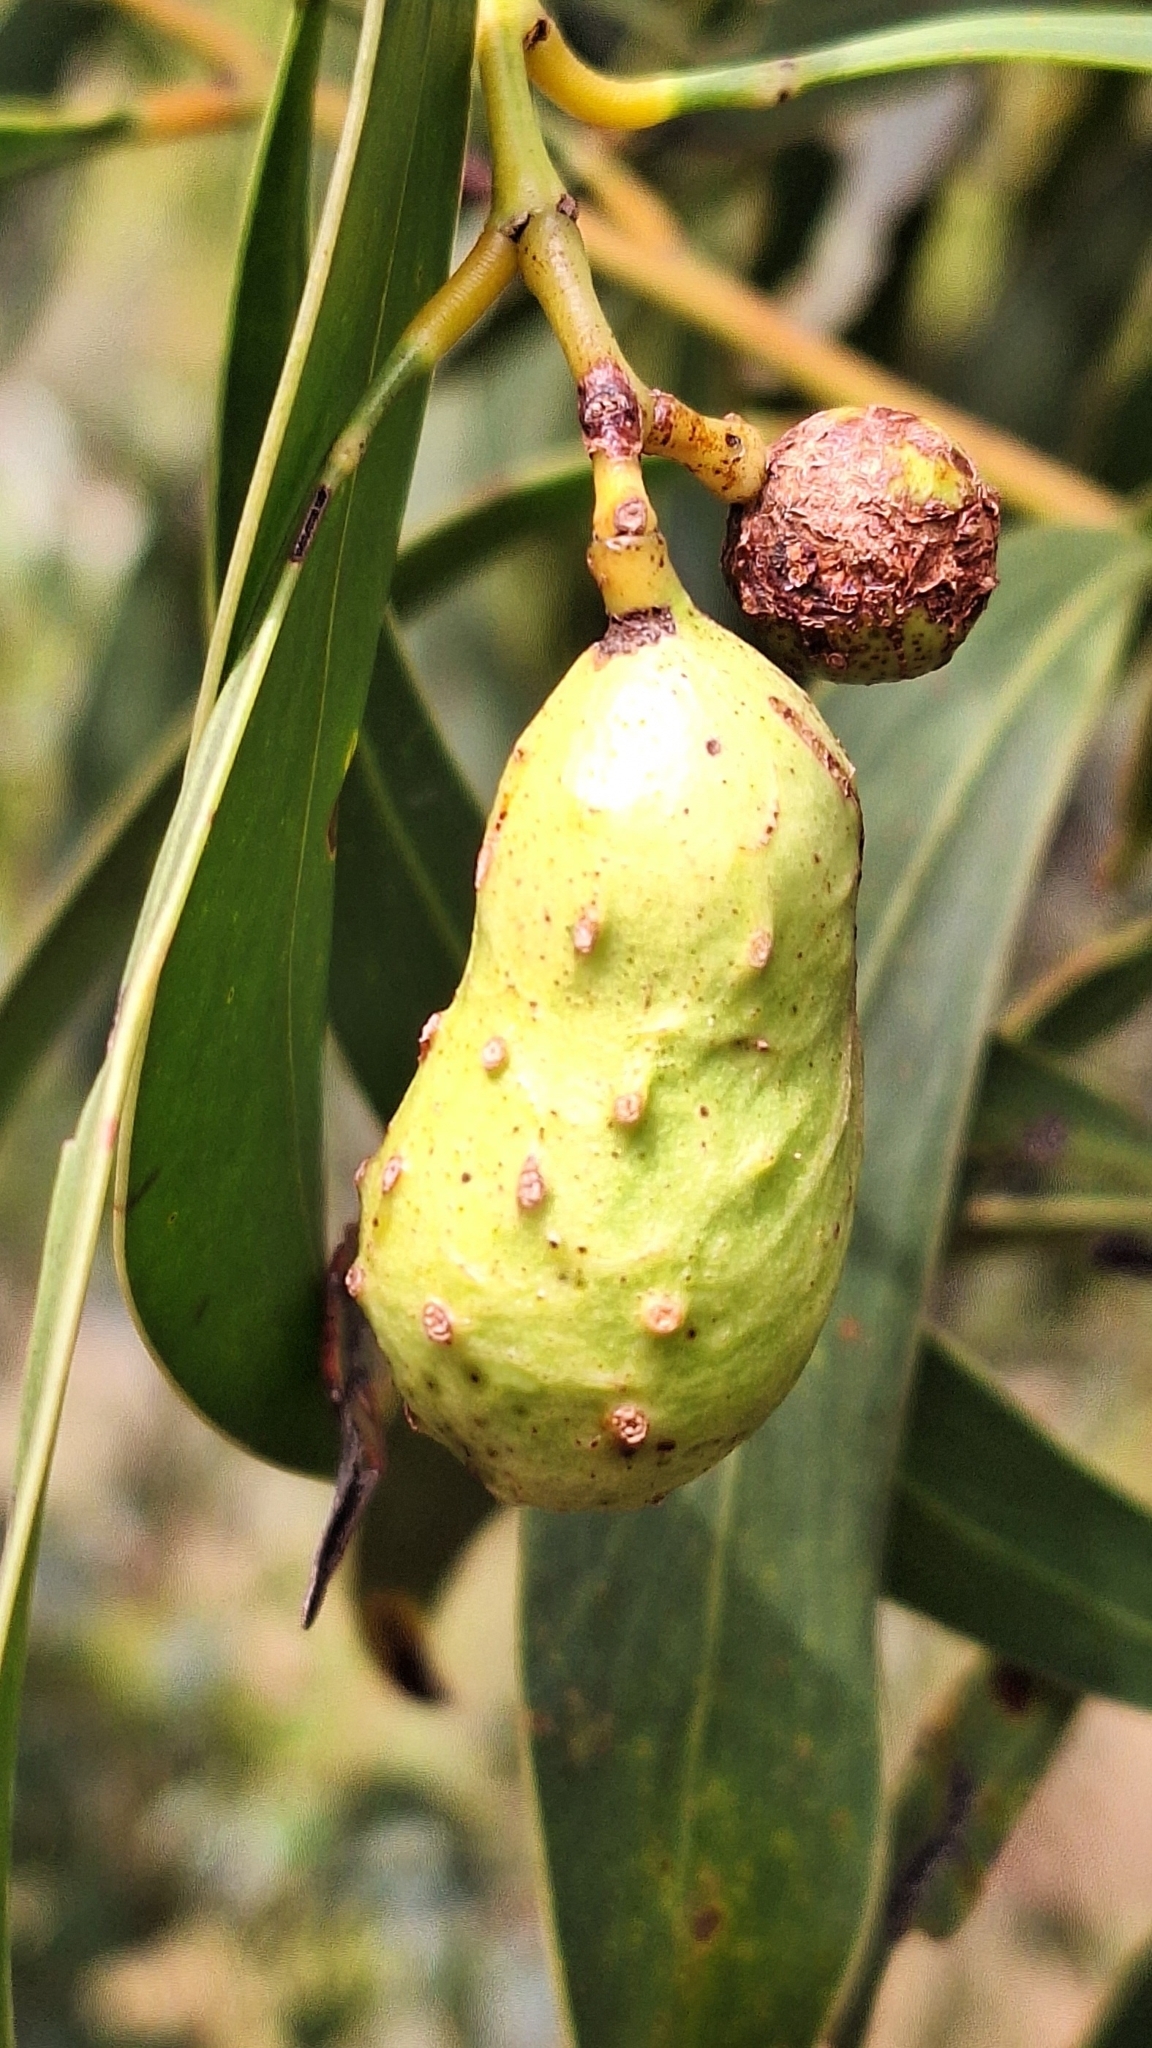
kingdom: Animalia
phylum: Arthropoda
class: Insecta
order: Hymenoptera
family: Pteromalidae
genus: Trichilogaster
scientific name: Trichilogaster signiventris
